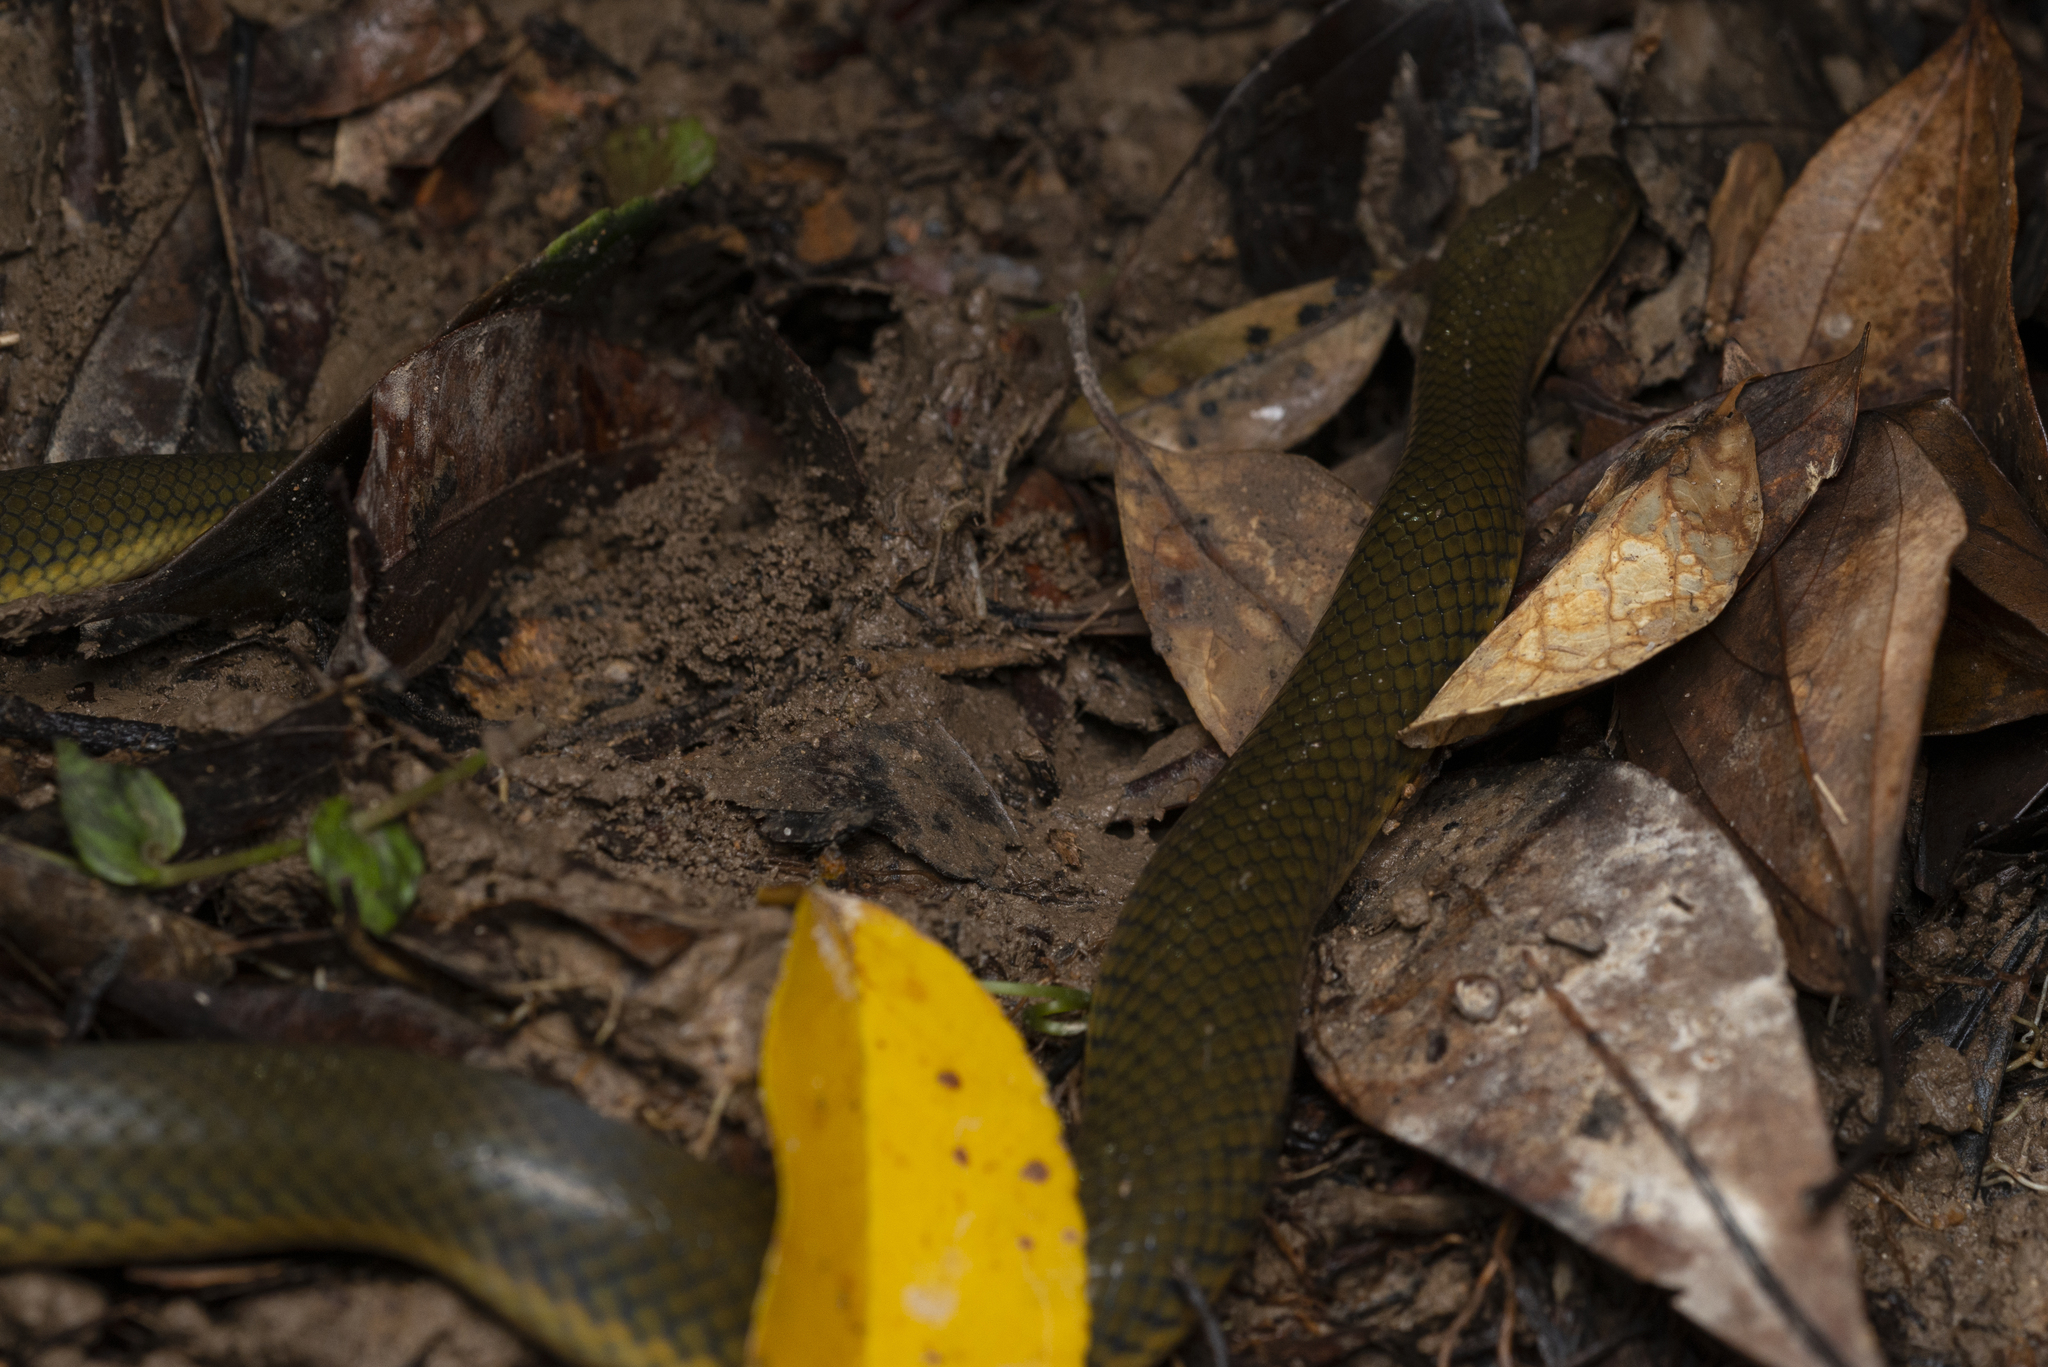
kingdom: Animalia
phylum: Chordata
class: Squamata
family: Homalopsidae
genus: Hypsiscopus
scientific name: Hypsiscopus
